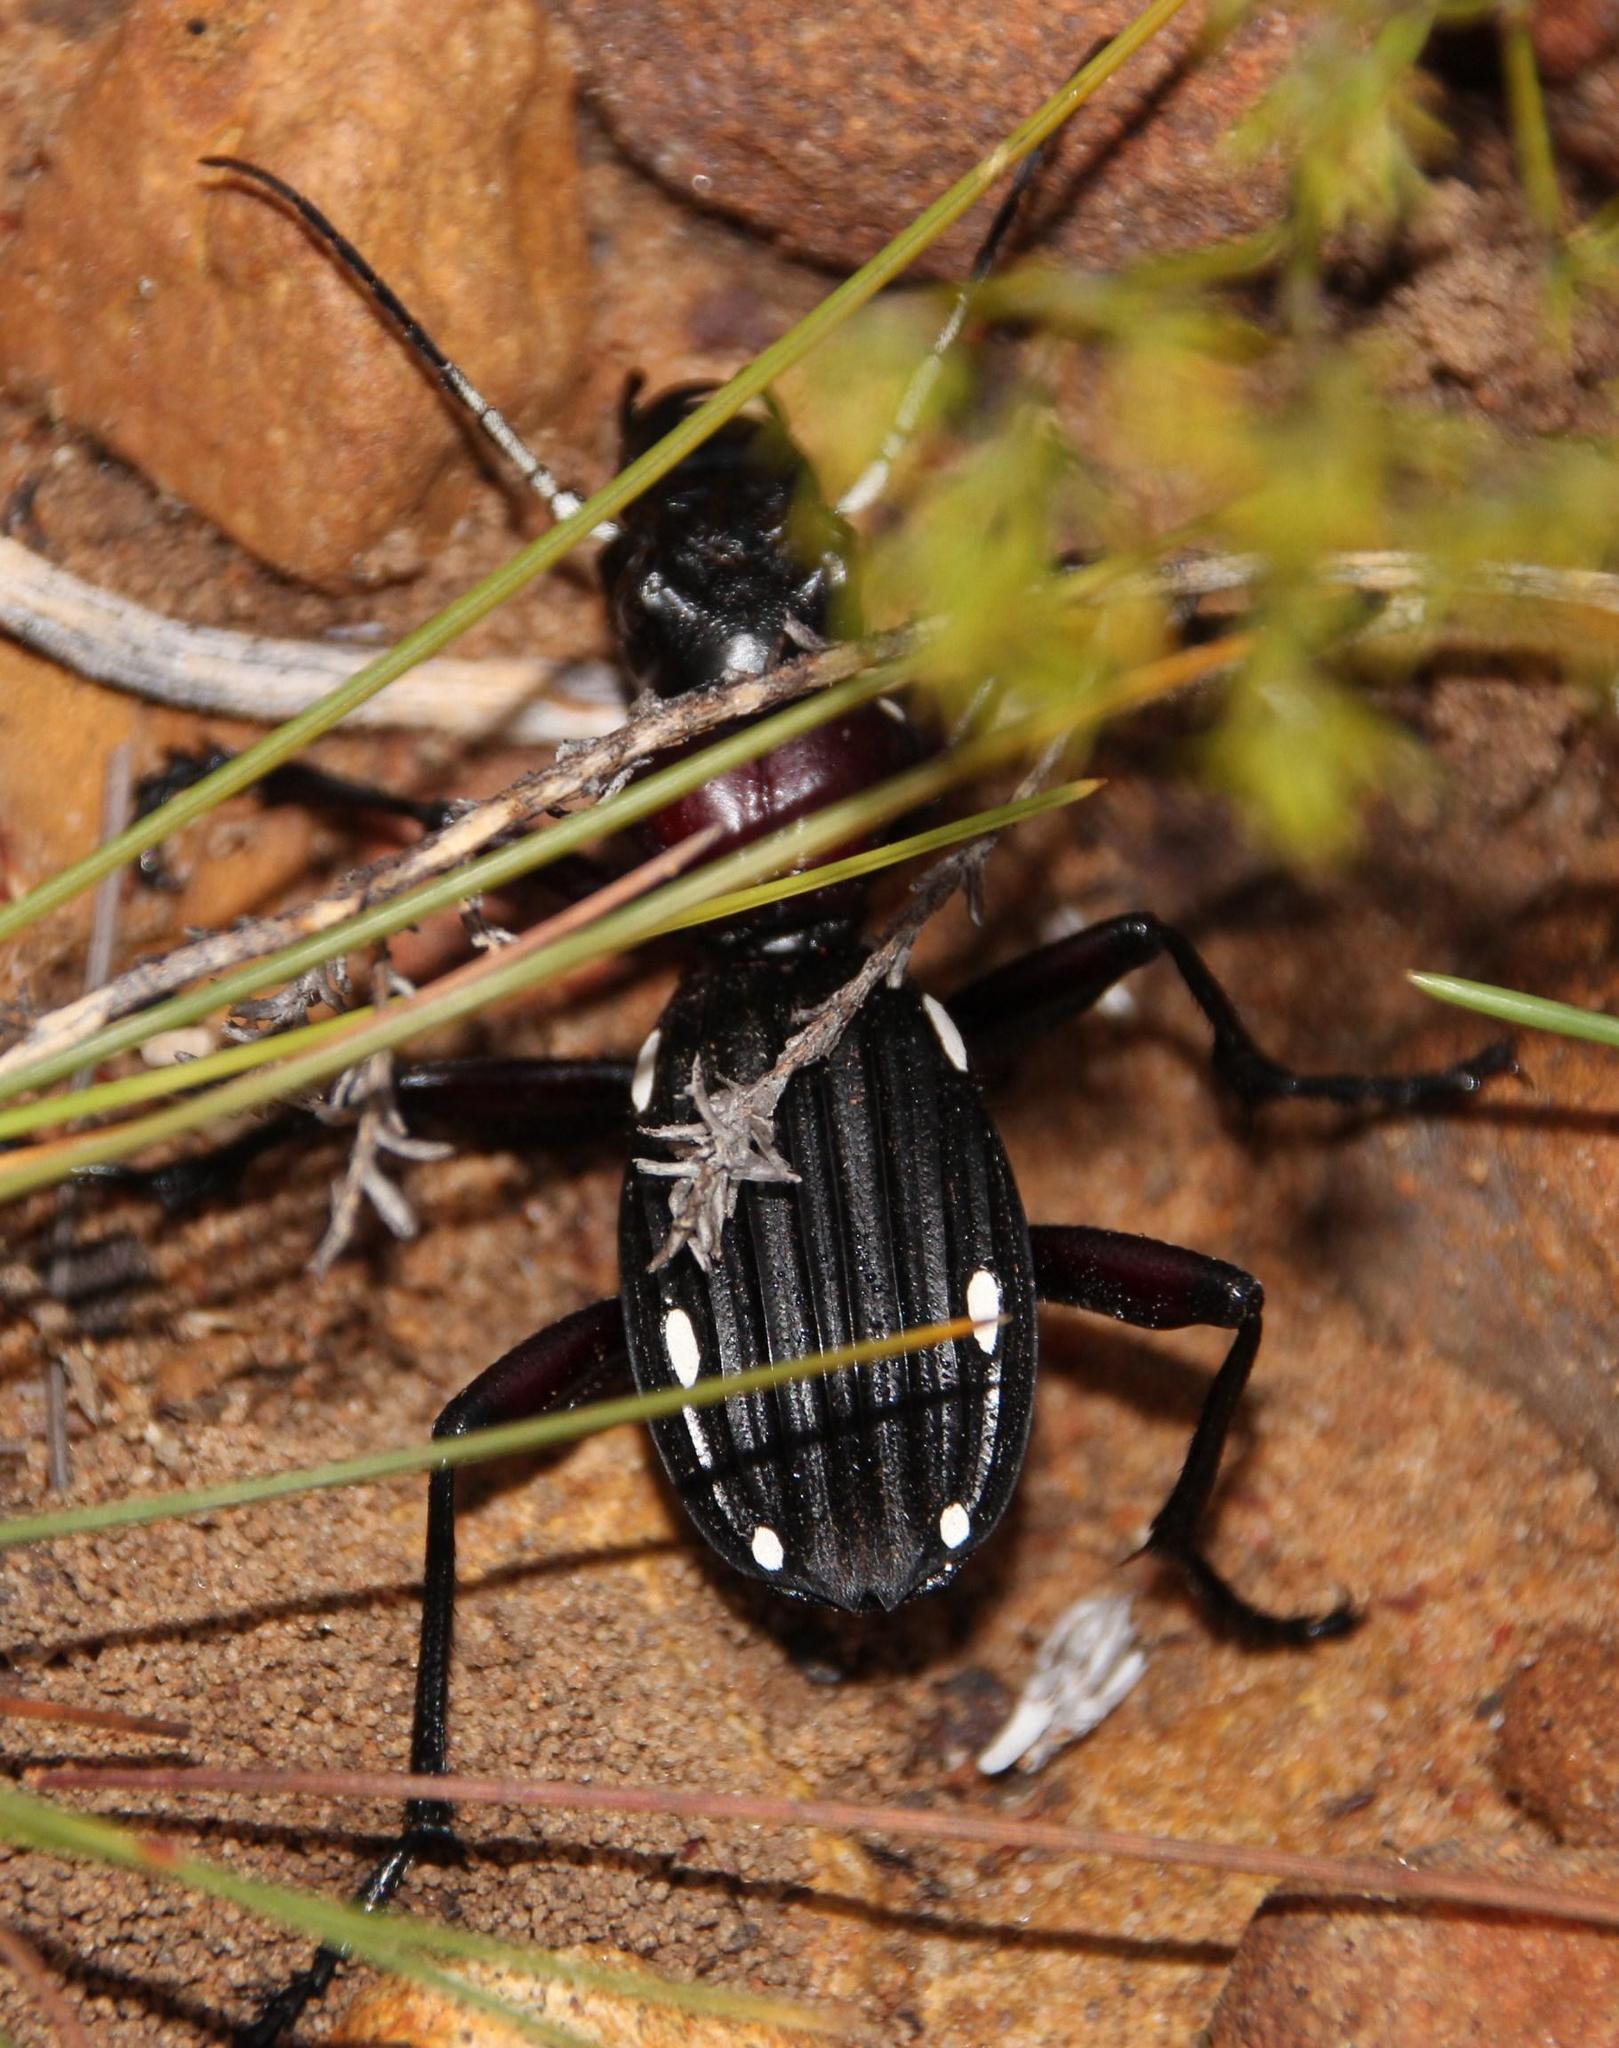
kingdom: Animalia
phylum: Arthropoda
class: Insecta
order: Coleoptera
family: Carabidae
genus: Anthia
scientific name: Anthia decemguttata
